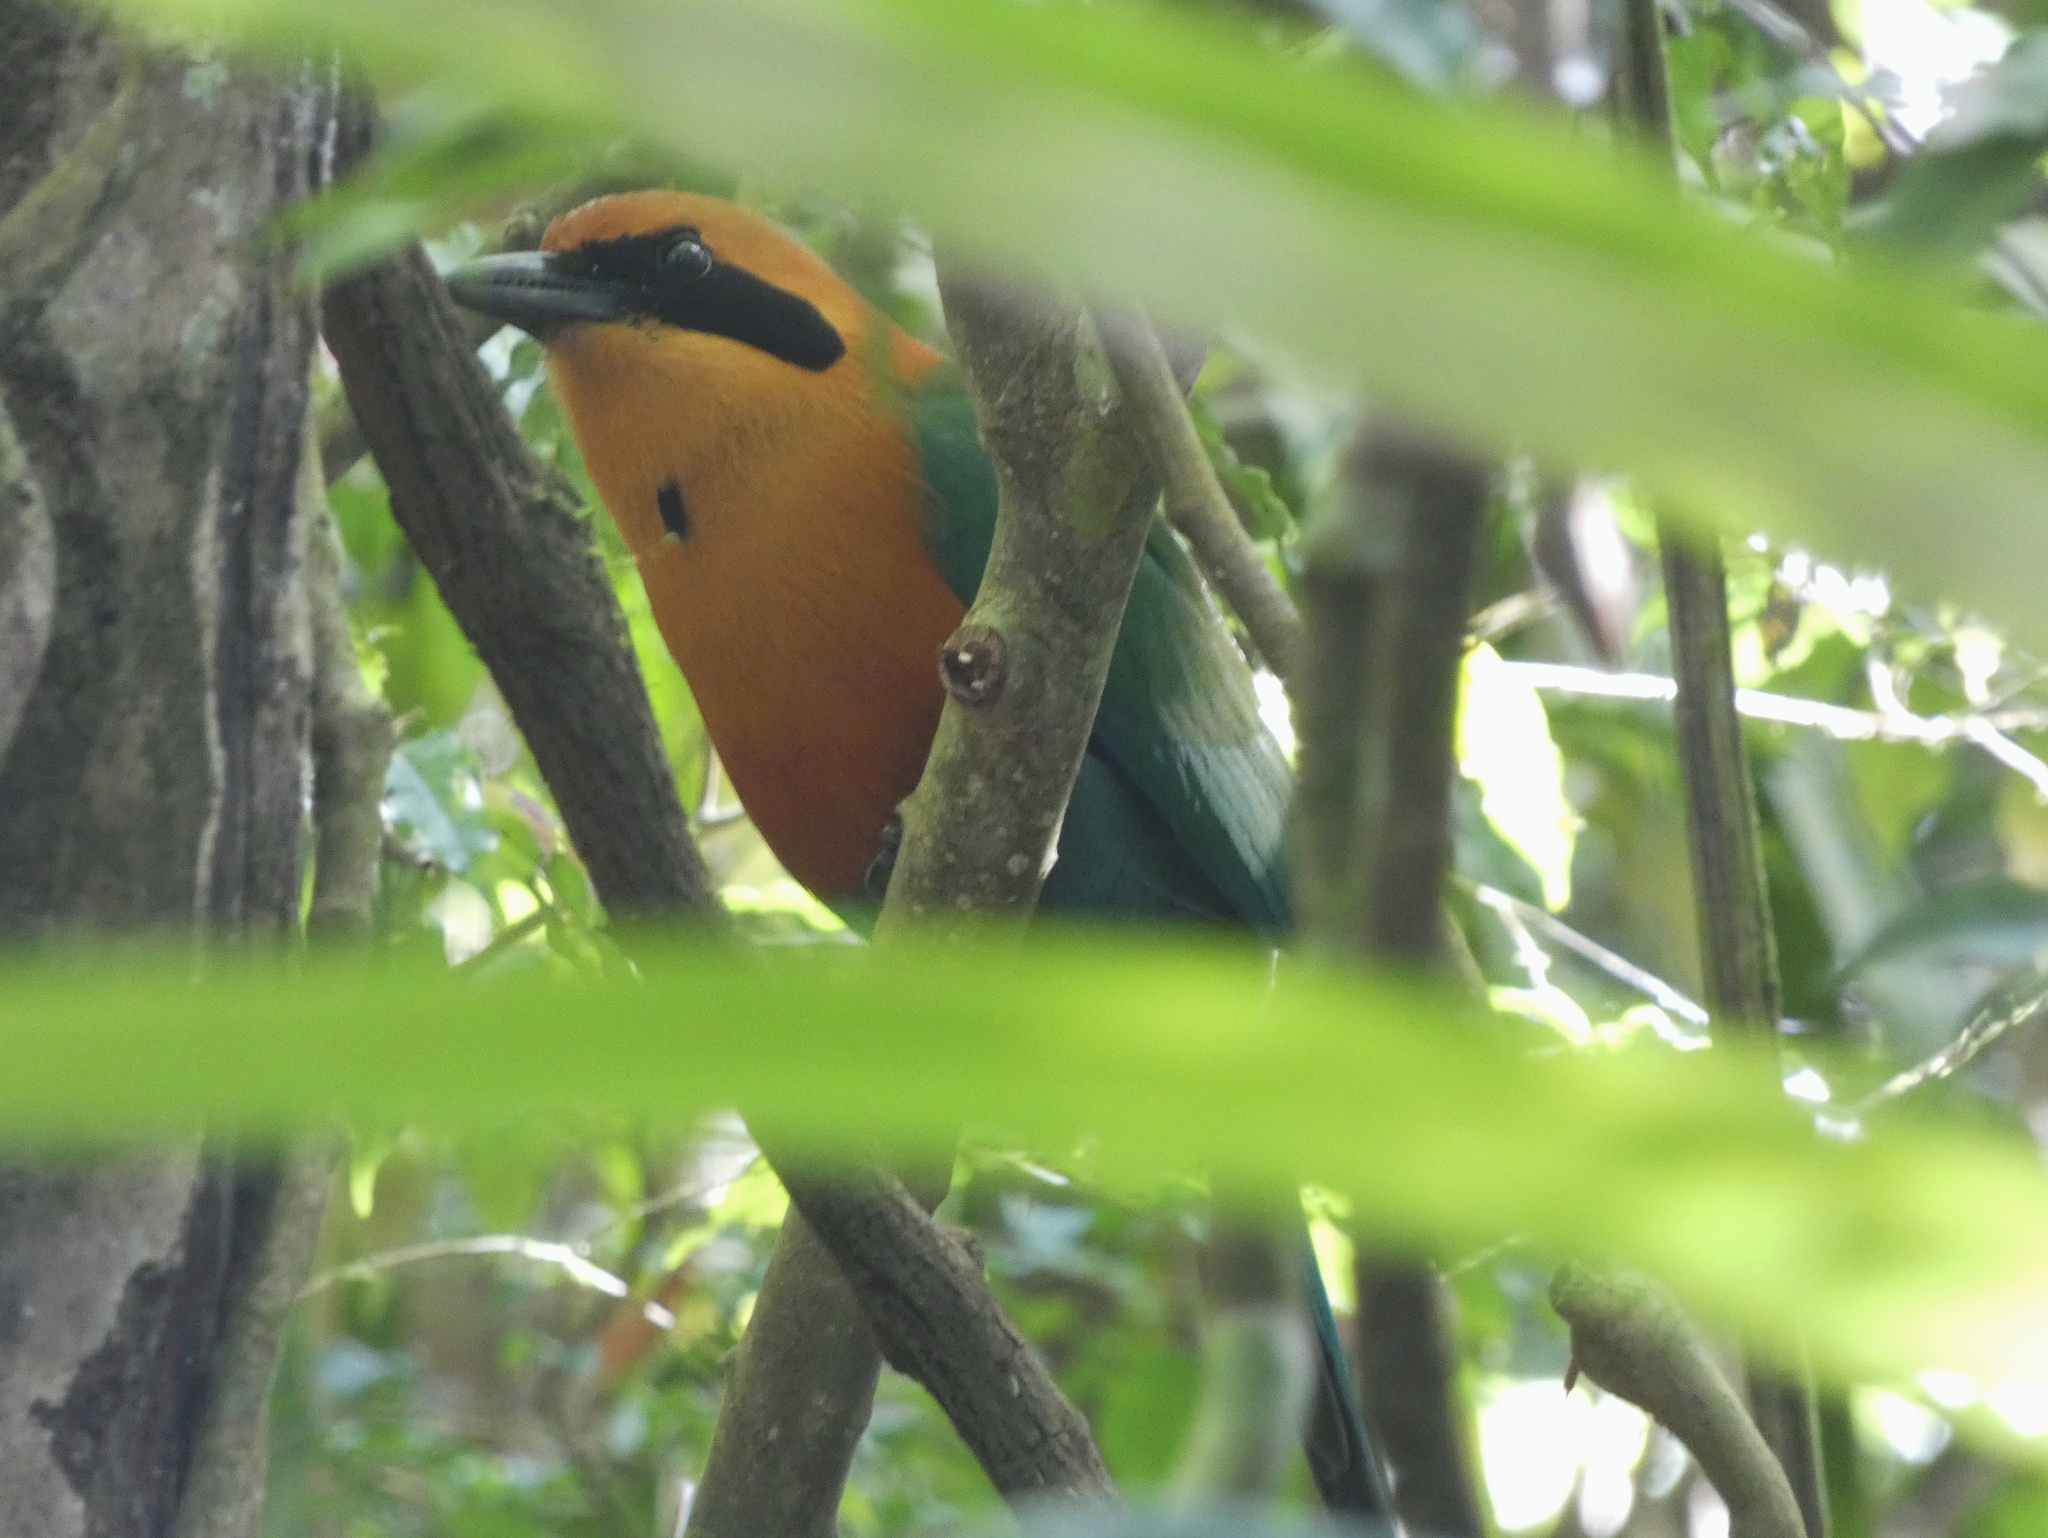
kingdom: Animalia
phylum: Chordata
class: Aves
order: Coraciiformes
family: Momotidae
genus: Baryphthengus
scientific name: Baryphthengus martii
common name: Rufous motmot
